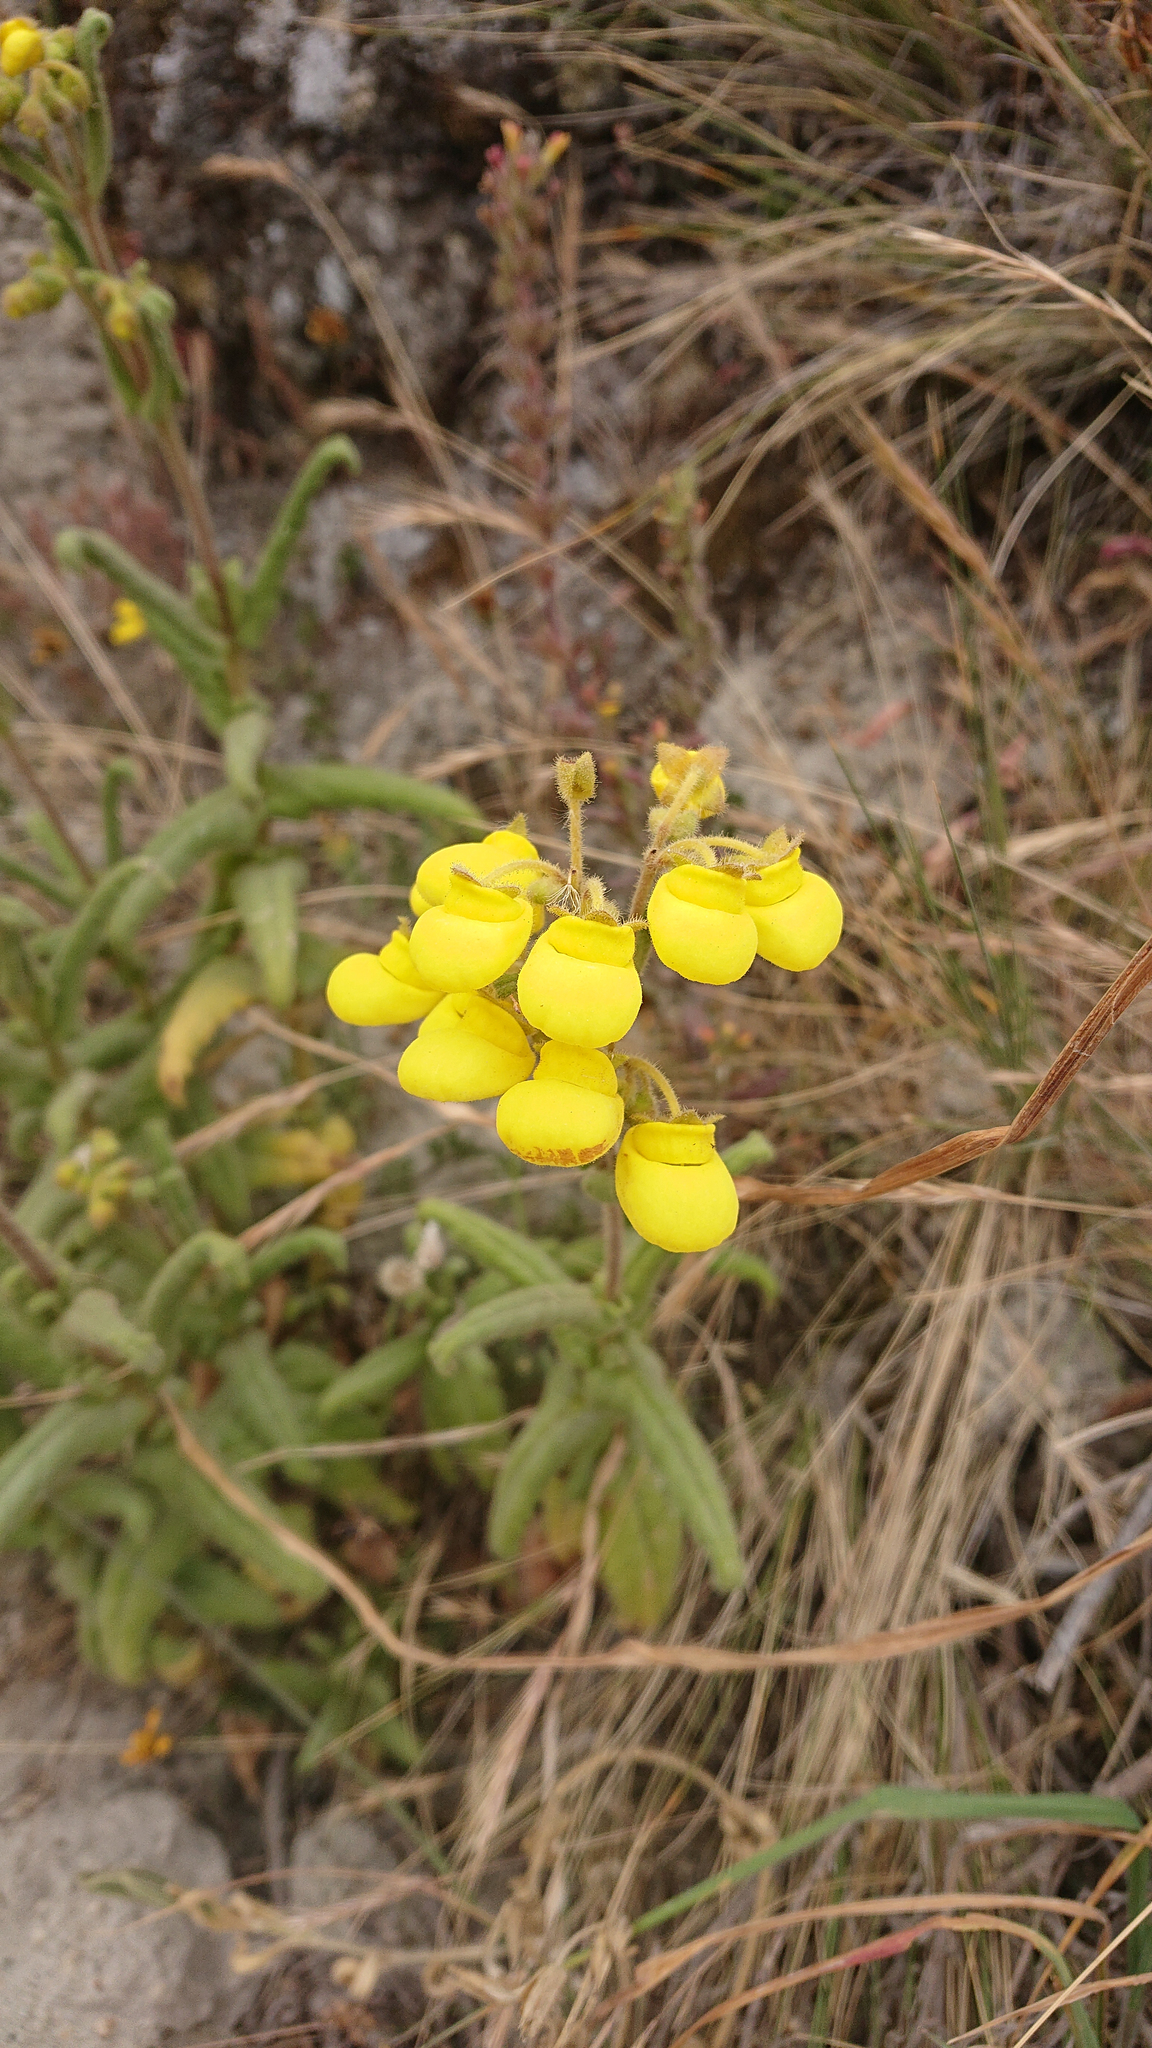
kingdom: Plantae
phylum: Tracheophyta
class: Magnoliopsida
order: Lamiales
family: Calceolariaceae
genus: Calceolaria
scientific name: Calceolaria crenata
